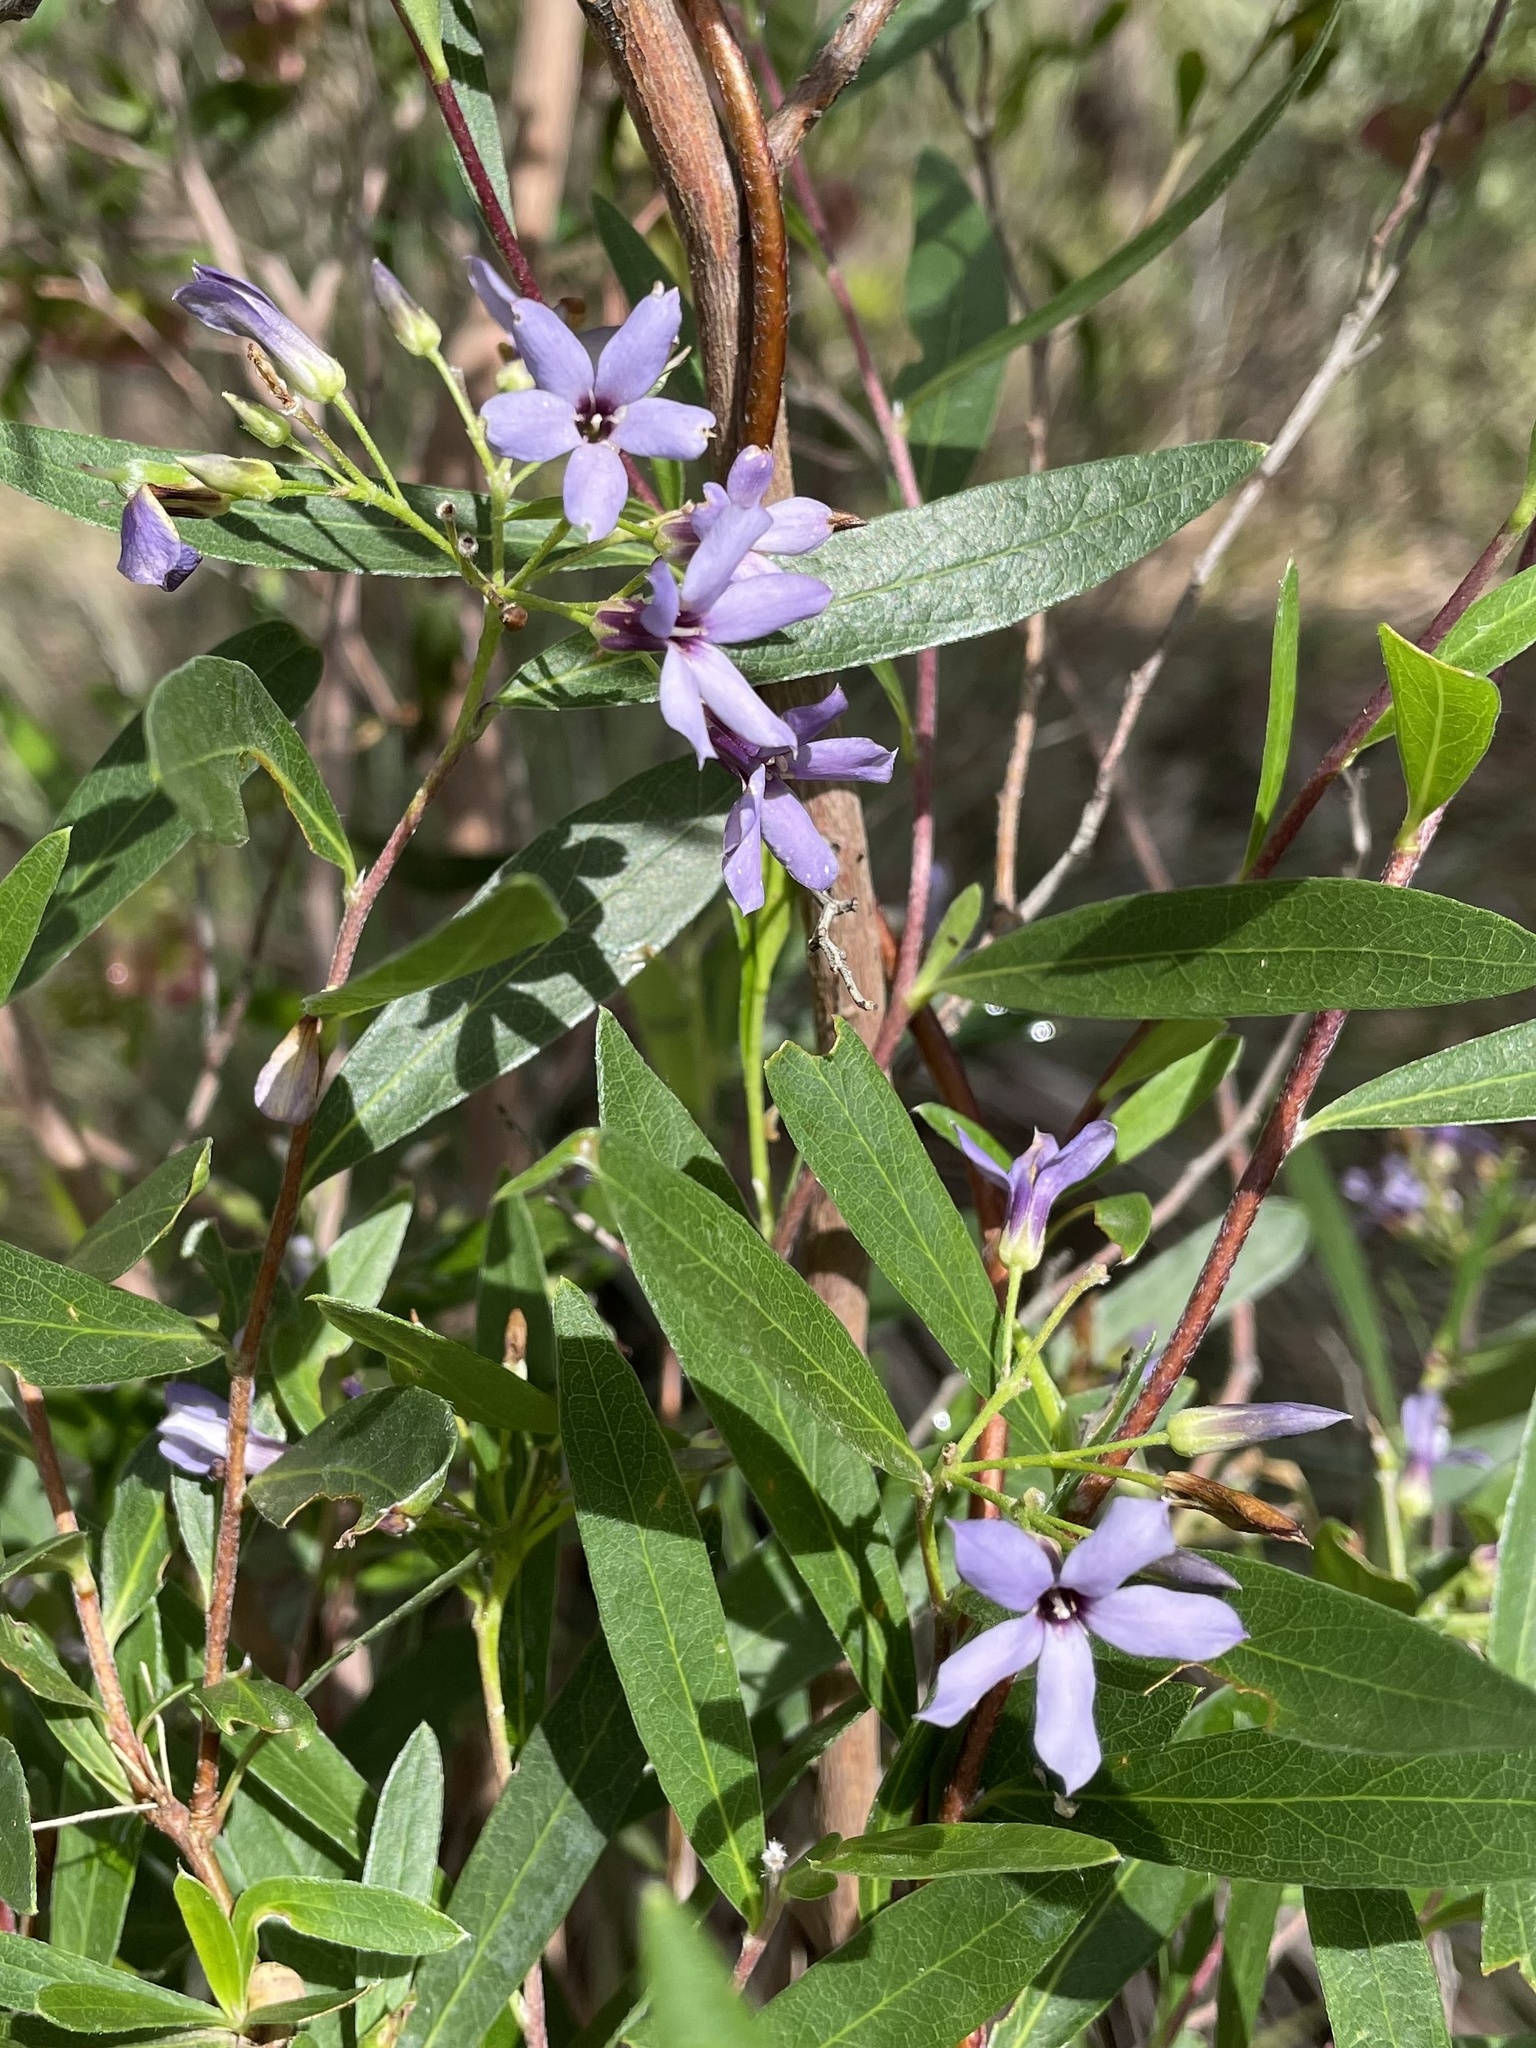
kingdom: Plantae
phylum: Tracheophyta
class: Magnoliopsida
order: Apiales
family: Pittosporaceae
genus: Billardiera
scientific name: Billardiera cymosa
